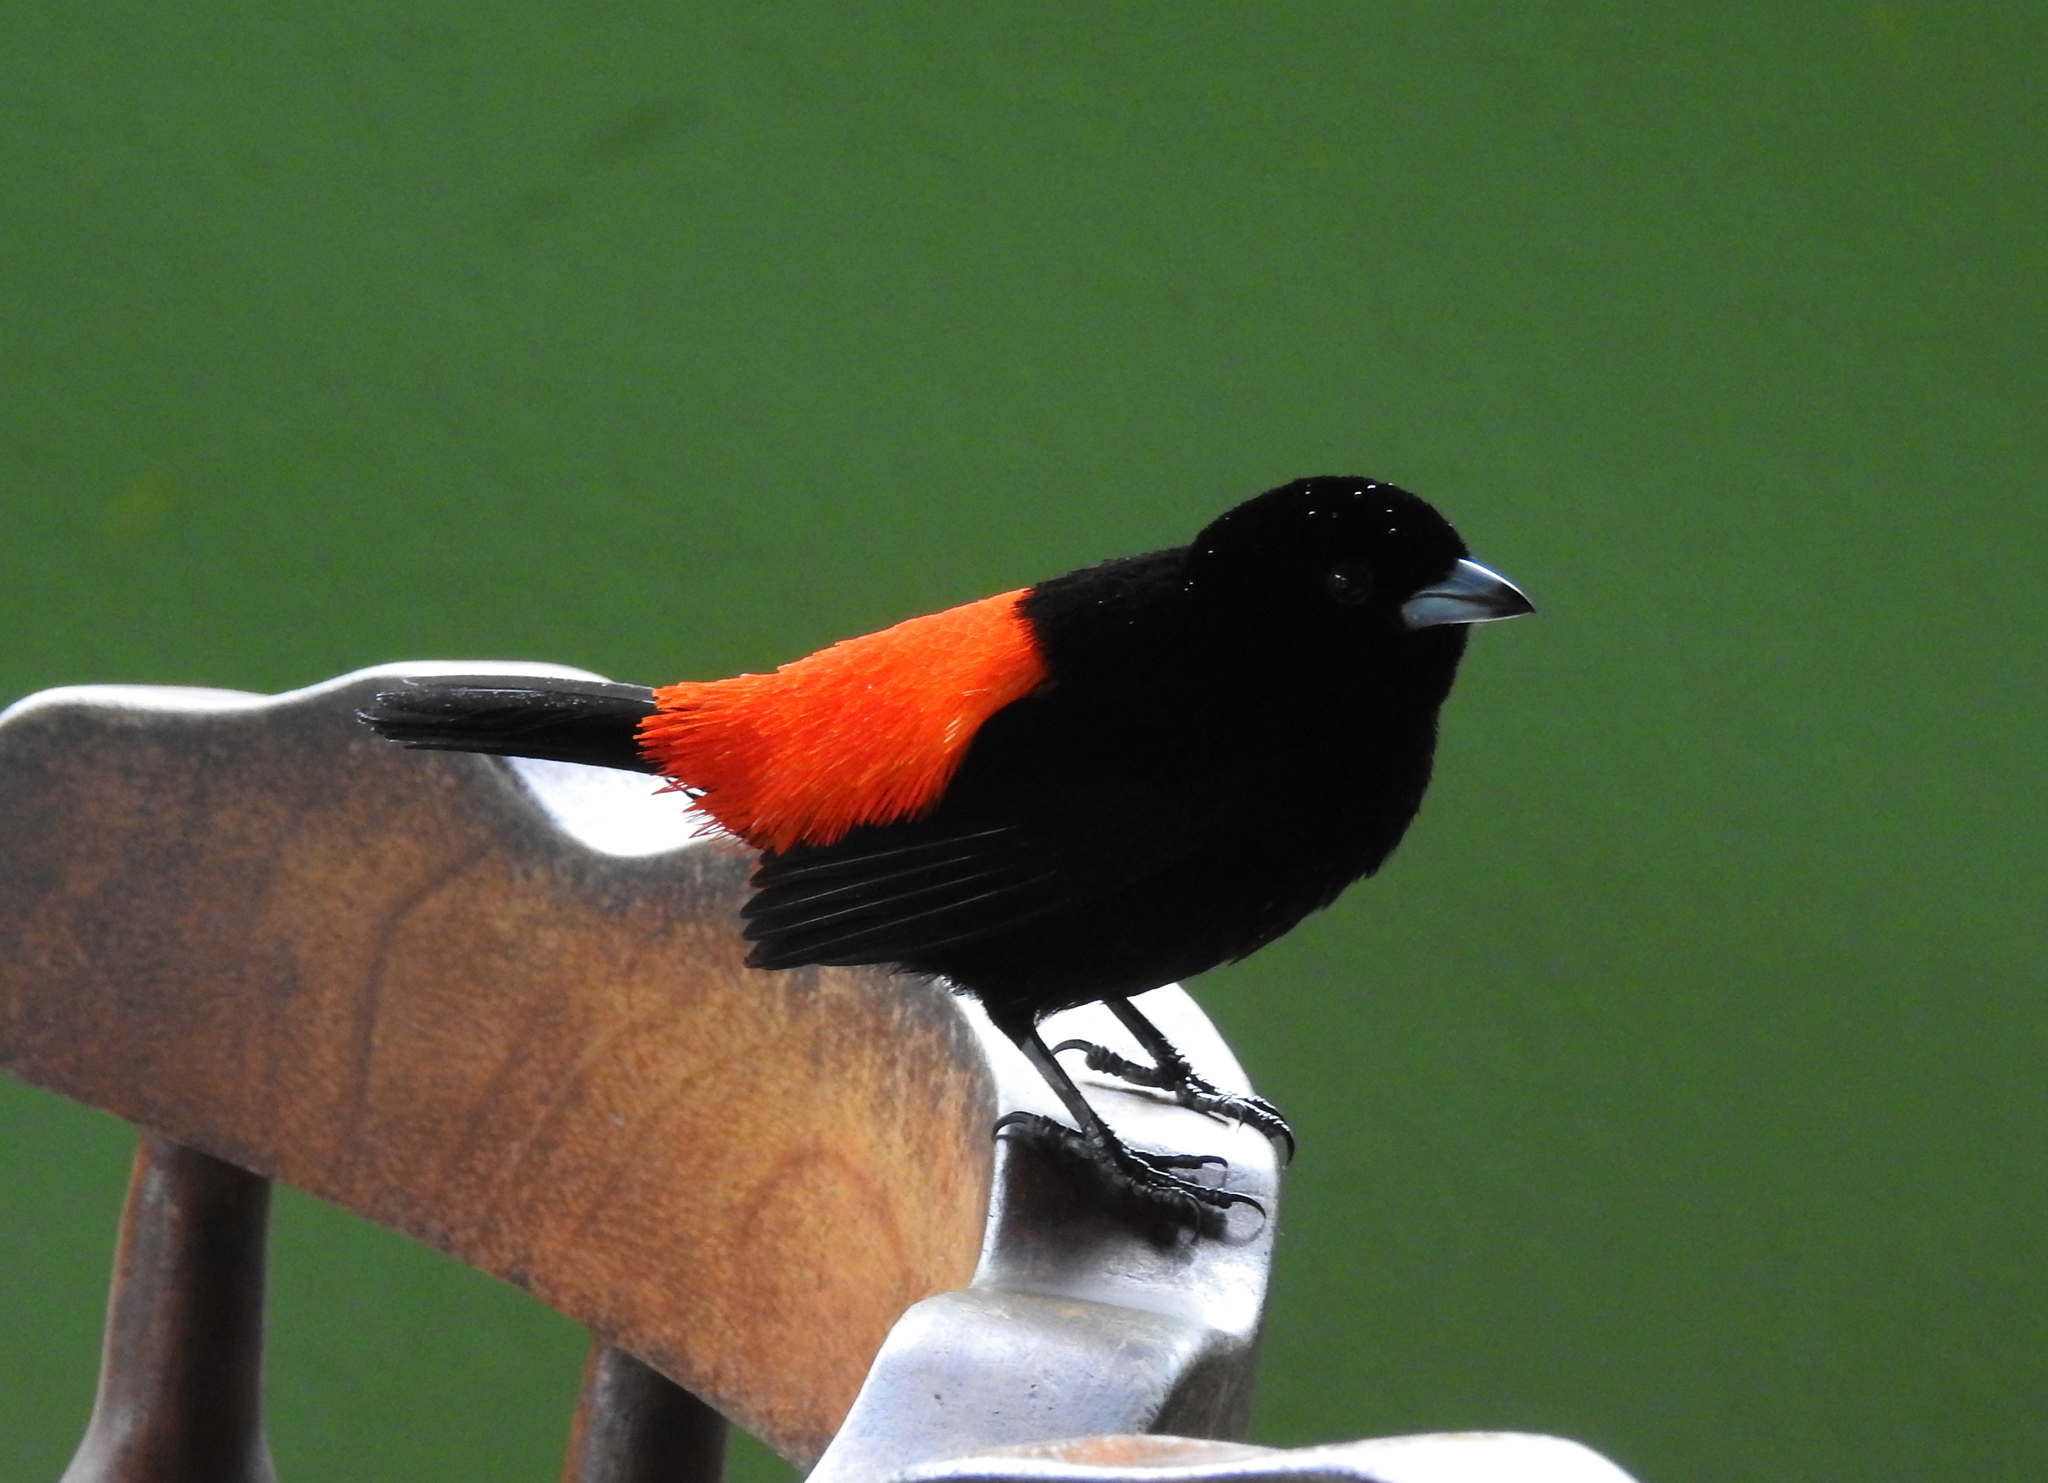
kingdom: Animalia
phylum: Chordata
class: Aves
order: Passeriformes
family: Thraupidae
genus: Ramphocelus
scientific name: Ramphocelus passerinii
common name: Passerini's tanager
